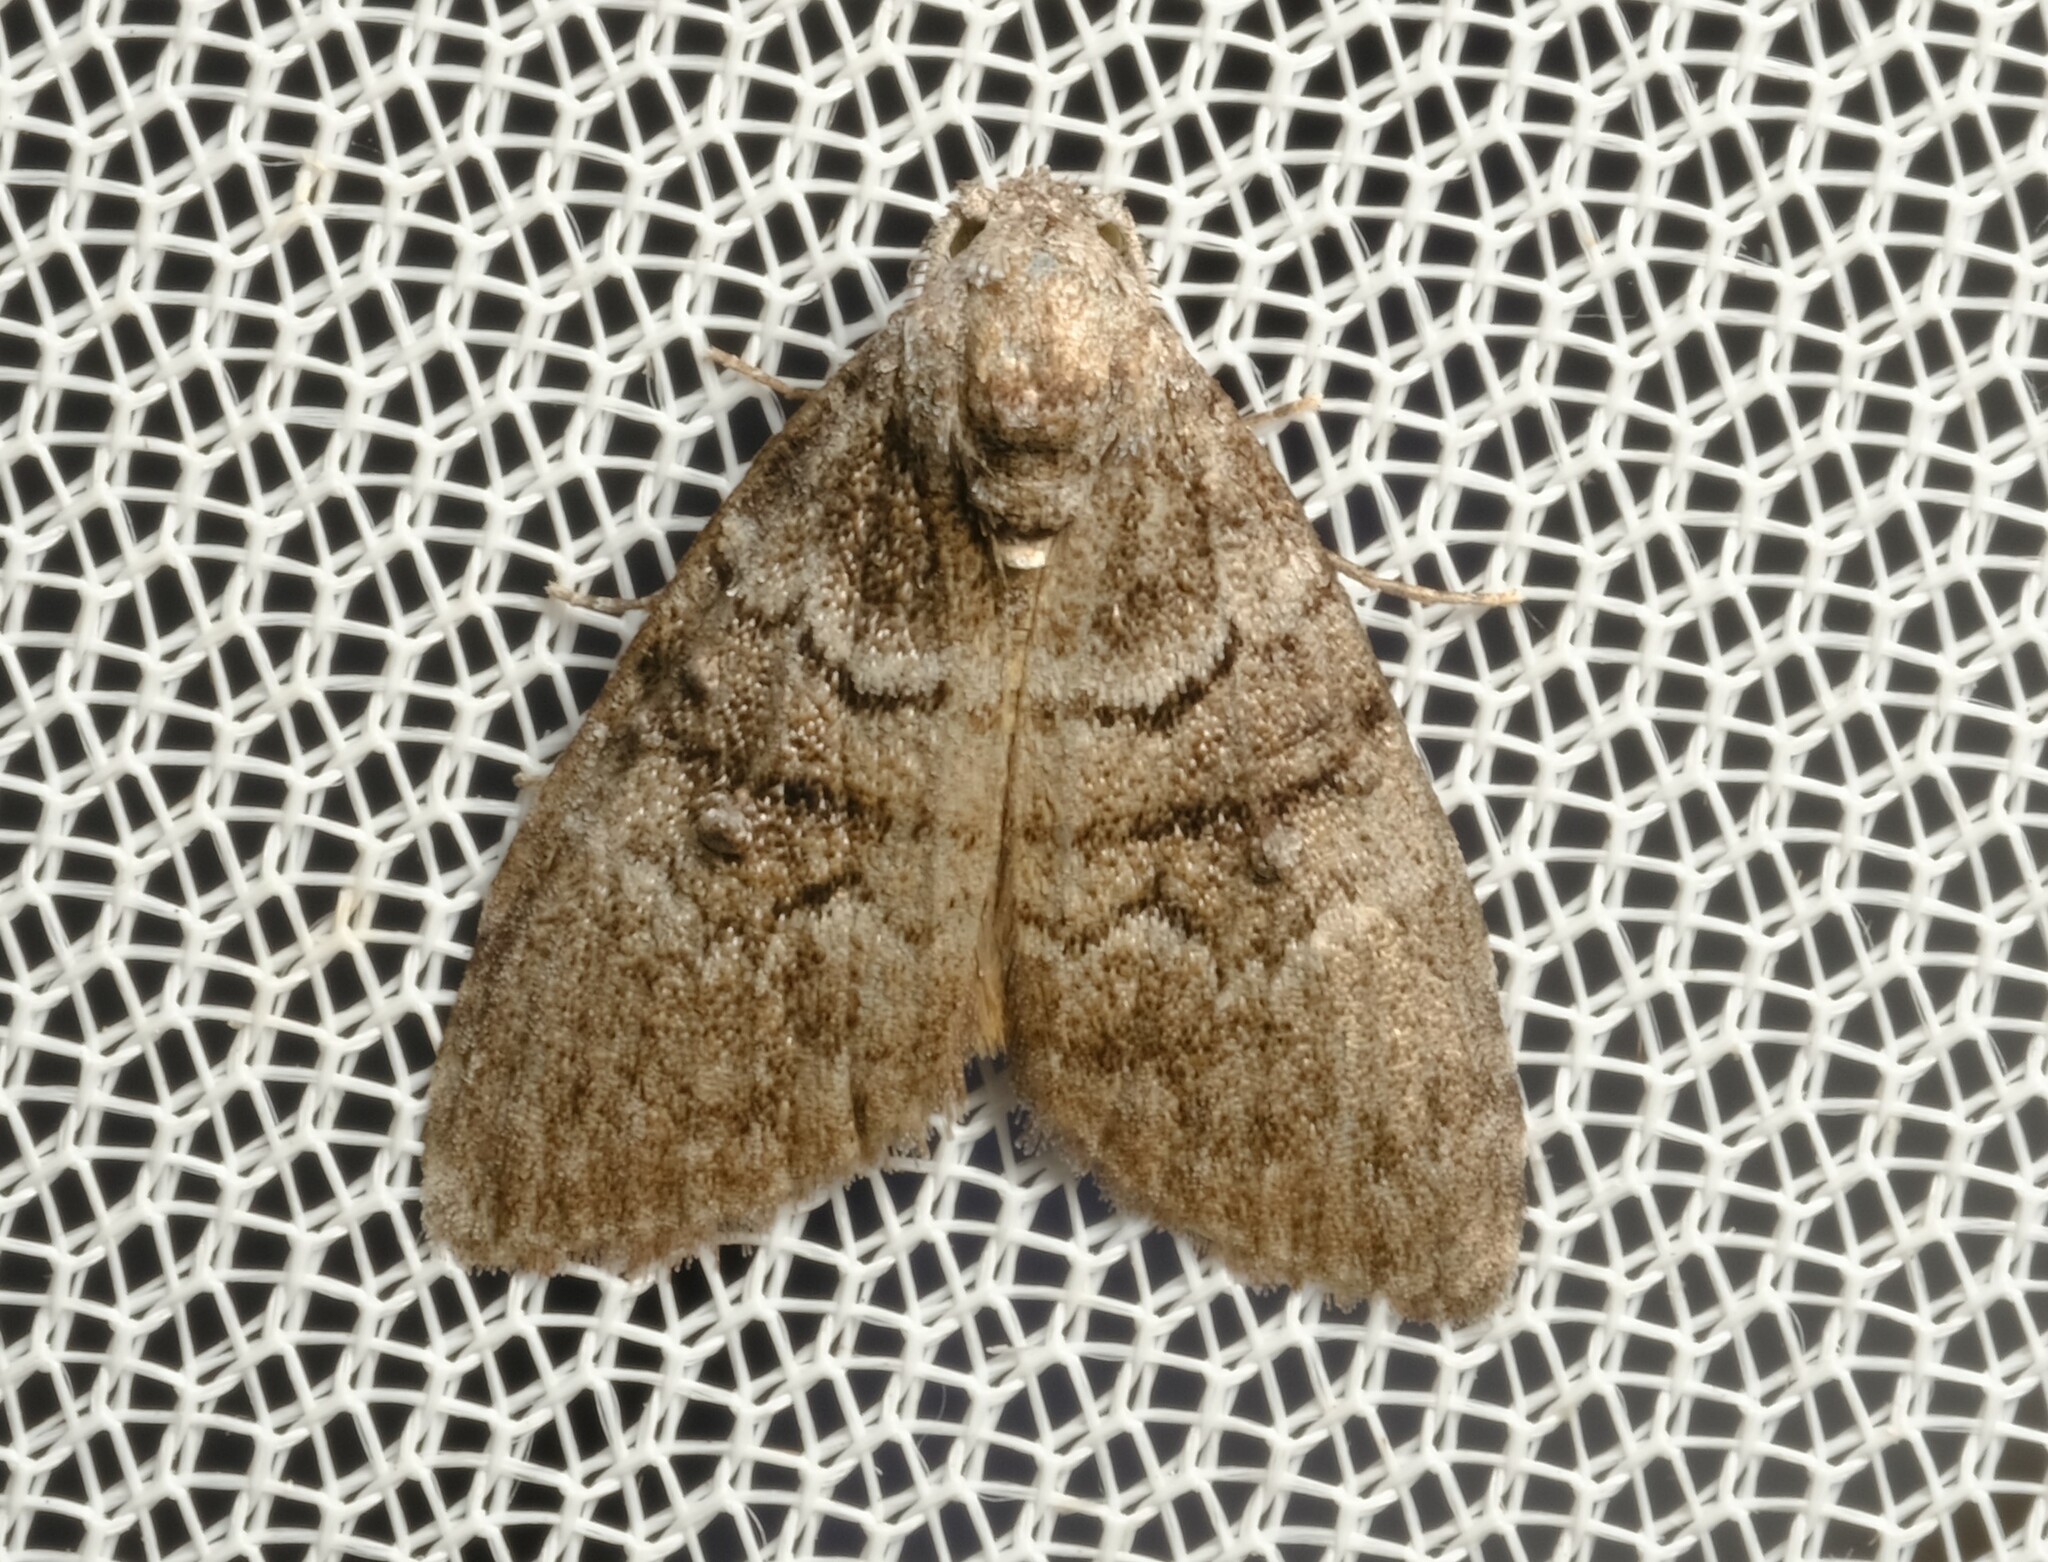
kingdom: Animalia
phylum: Arthropoda
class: Insecta
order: Lepidoptera
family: Nolidae
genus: Uraba
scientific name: Uraba lugens
